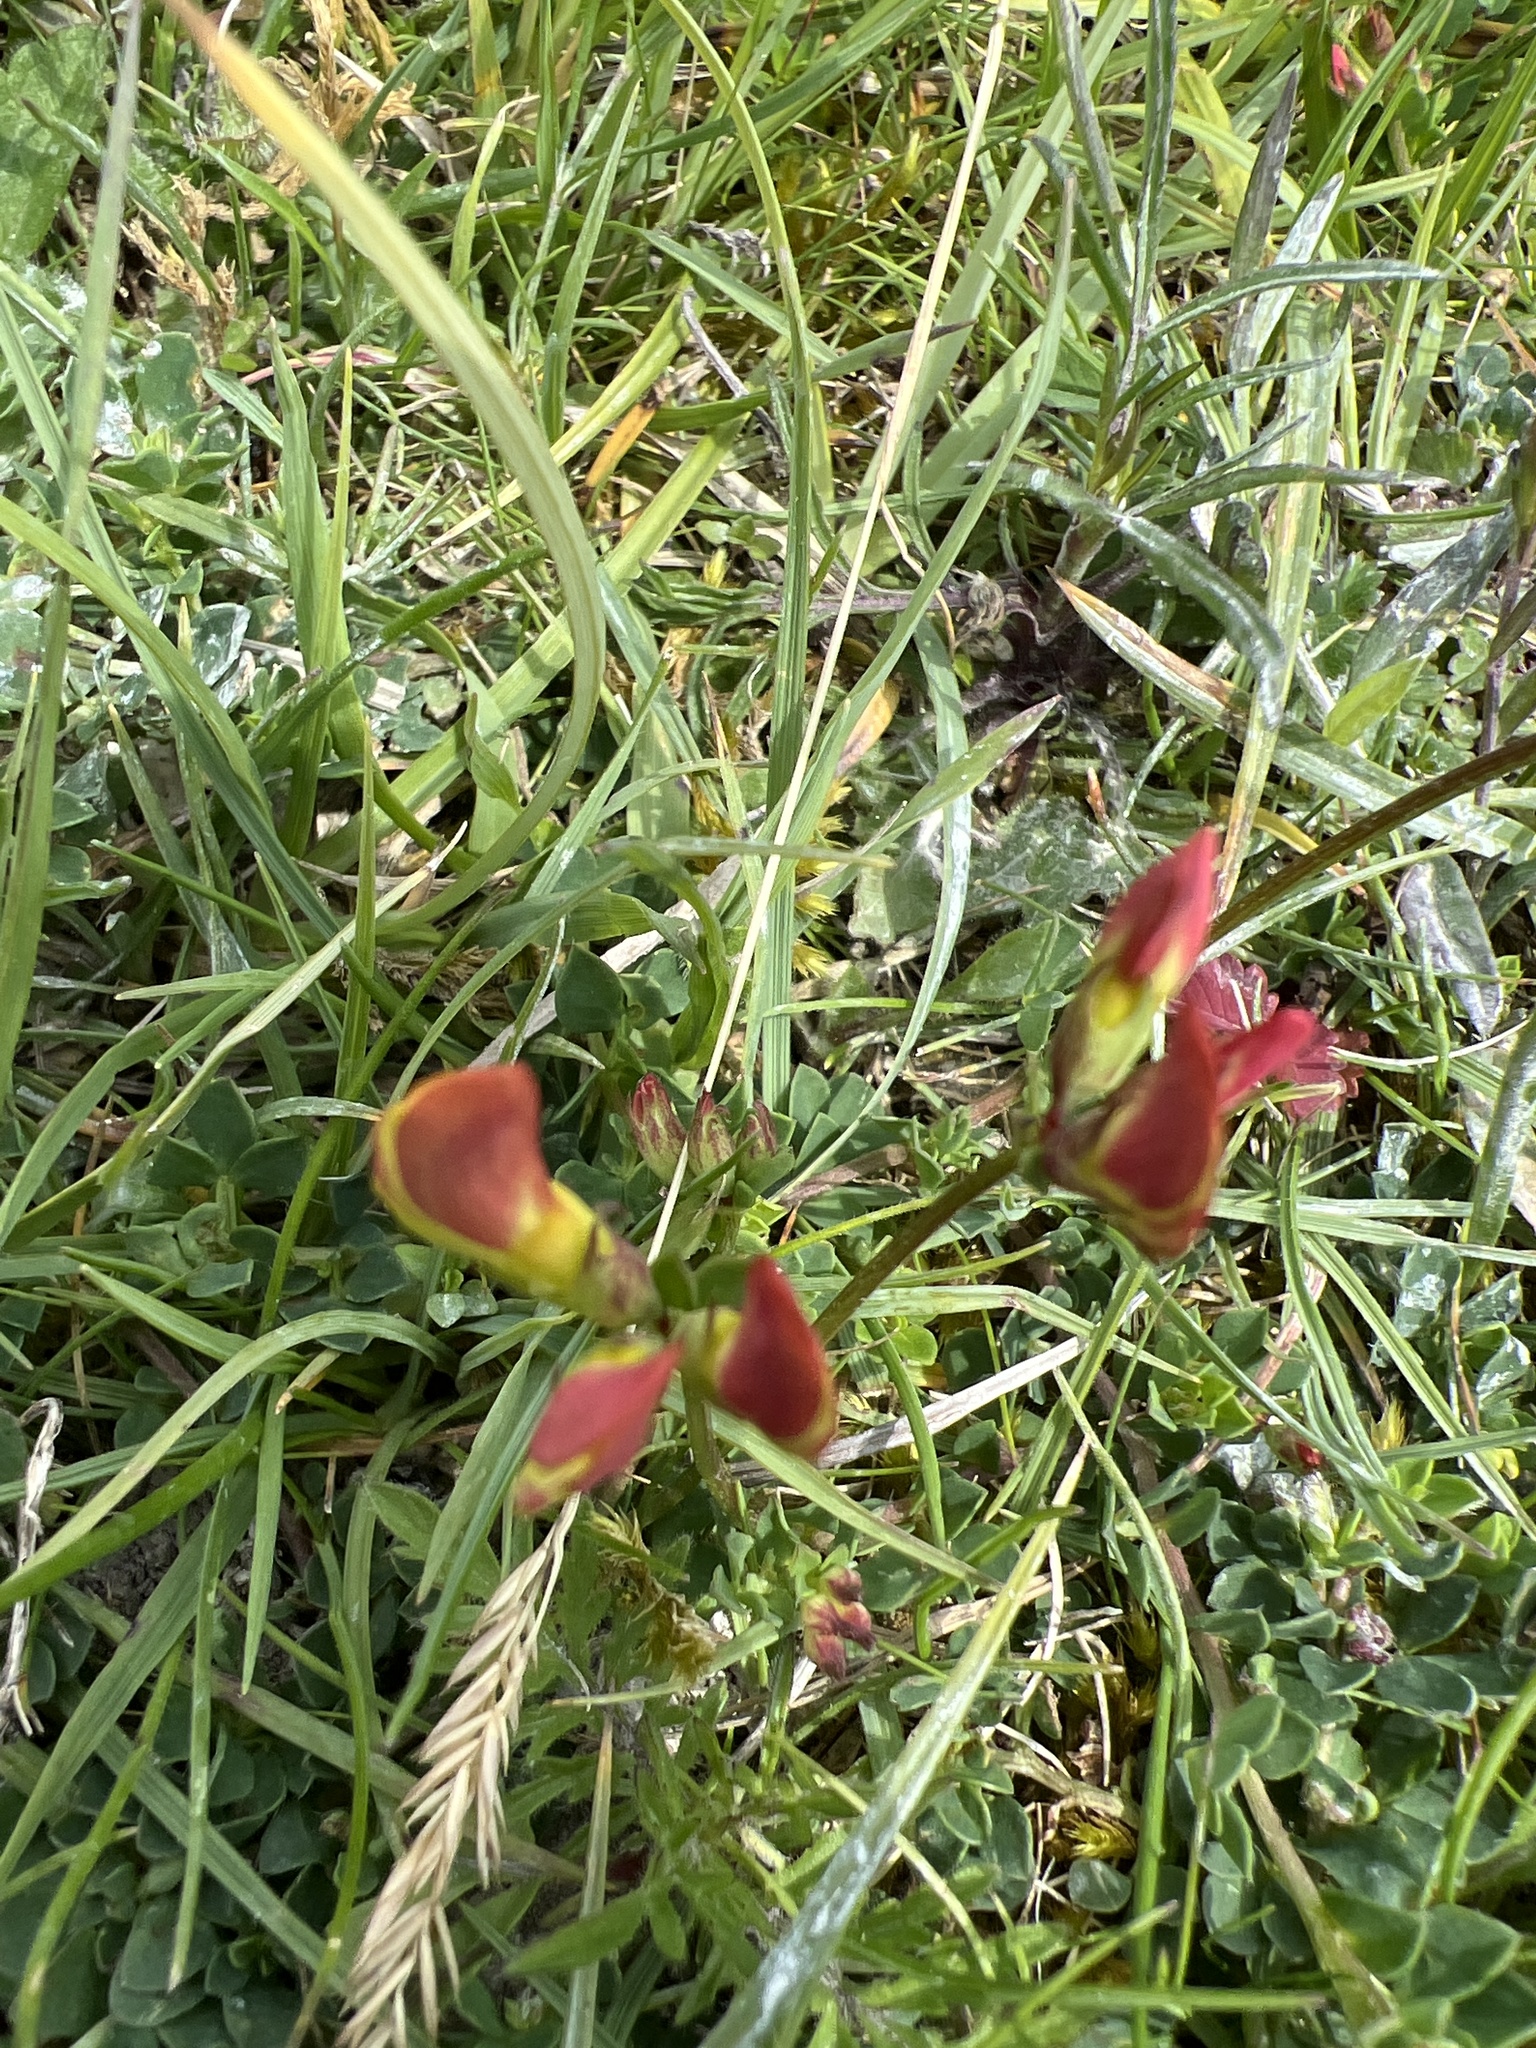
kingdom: Plantae
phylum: Tracheophyta
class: Magnoliopsida
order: Fabales
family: Fabaceae
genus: Lotus
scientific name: Lotus corniculatus
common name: Common bird's-foot-trefoil
